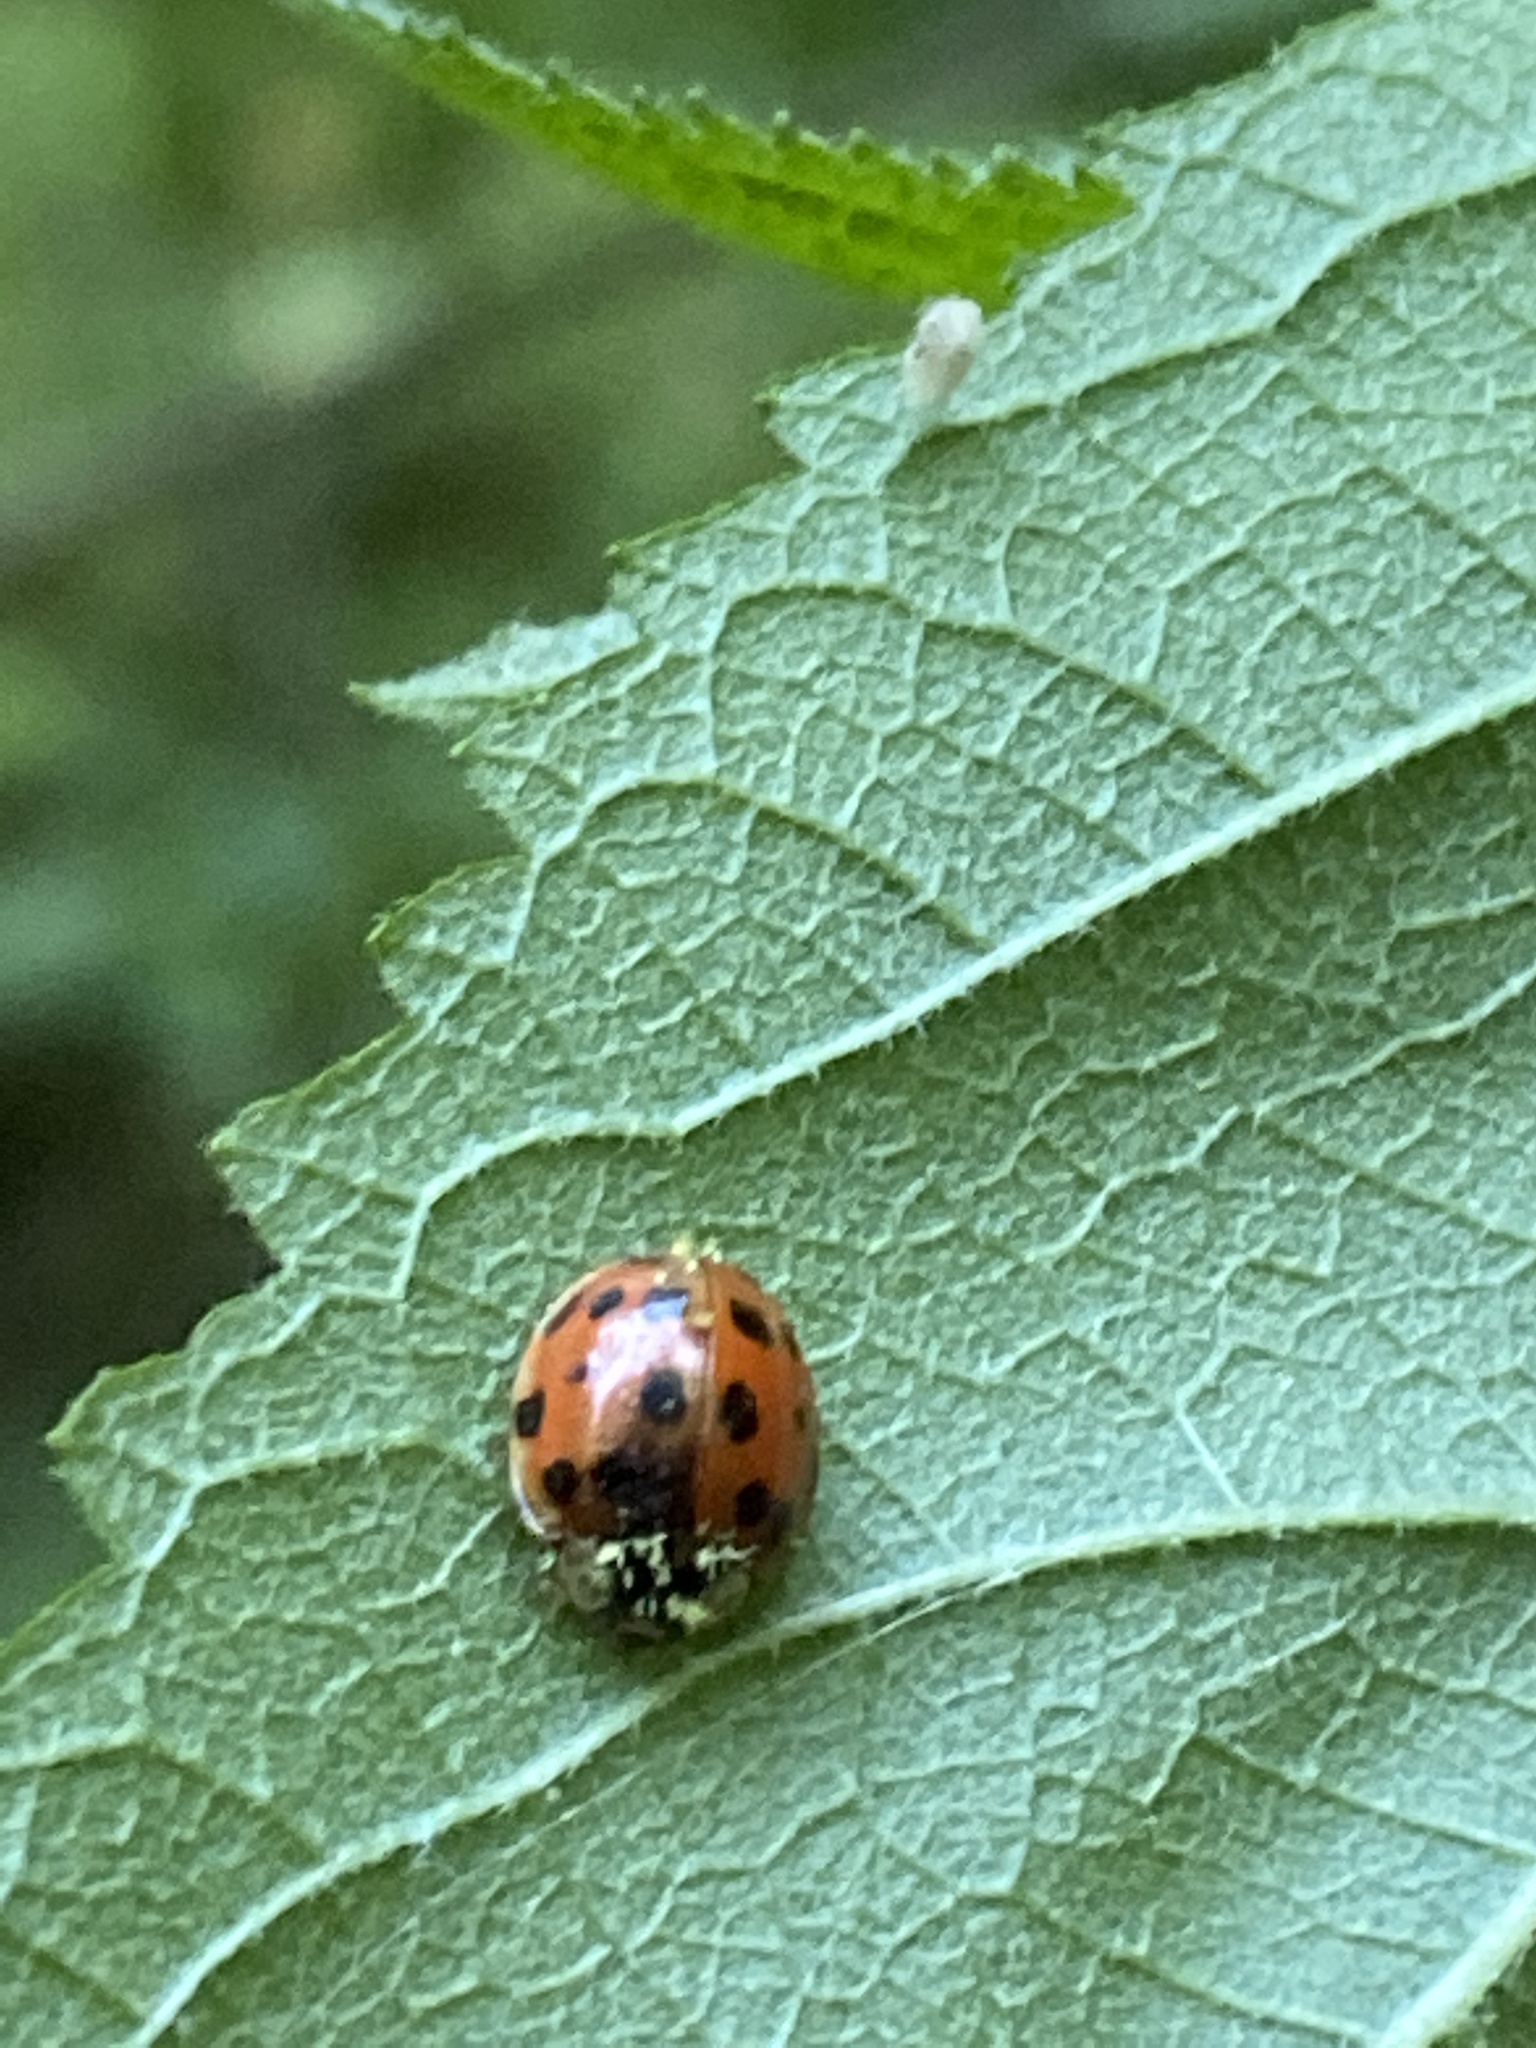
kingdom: Animalia
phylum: Arthropoda
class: Insecta
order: Coleoptera
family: Coccinellidae
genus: Harmonia
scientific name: Harmonia axyridis
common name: Harlequin ladybird
